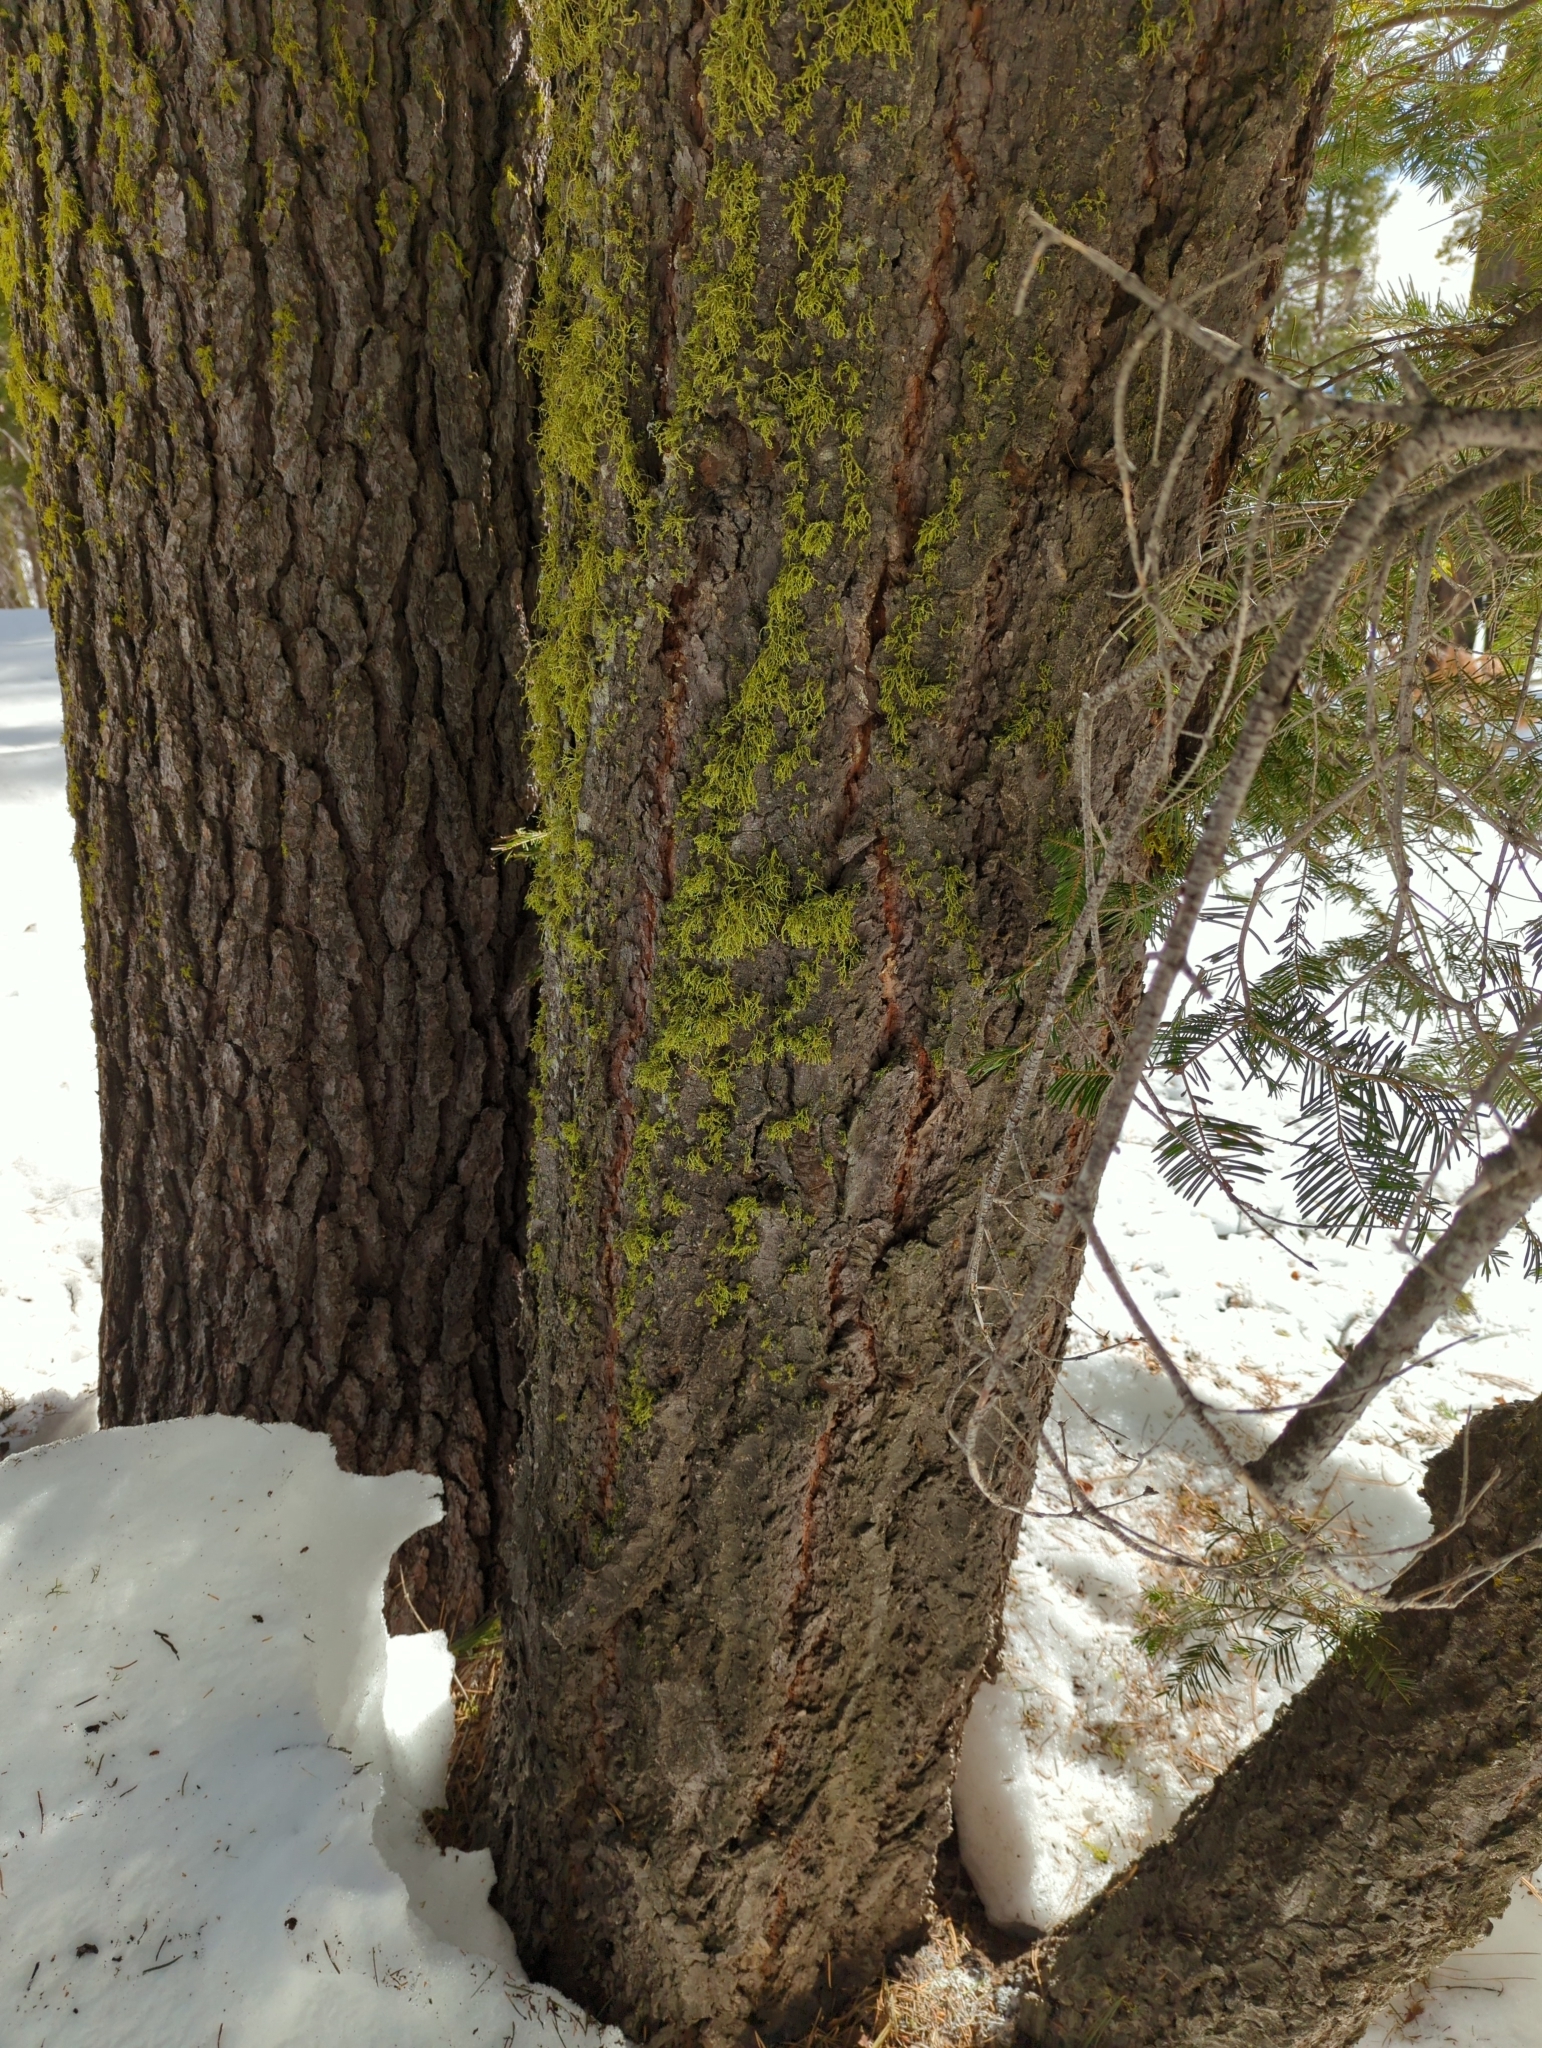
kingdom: Plantae
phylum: Tracheophyta
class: Pinopsida
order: Pinales
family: Pinaceae
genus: Abies
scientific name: Abies concolor
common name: Colorado fir
